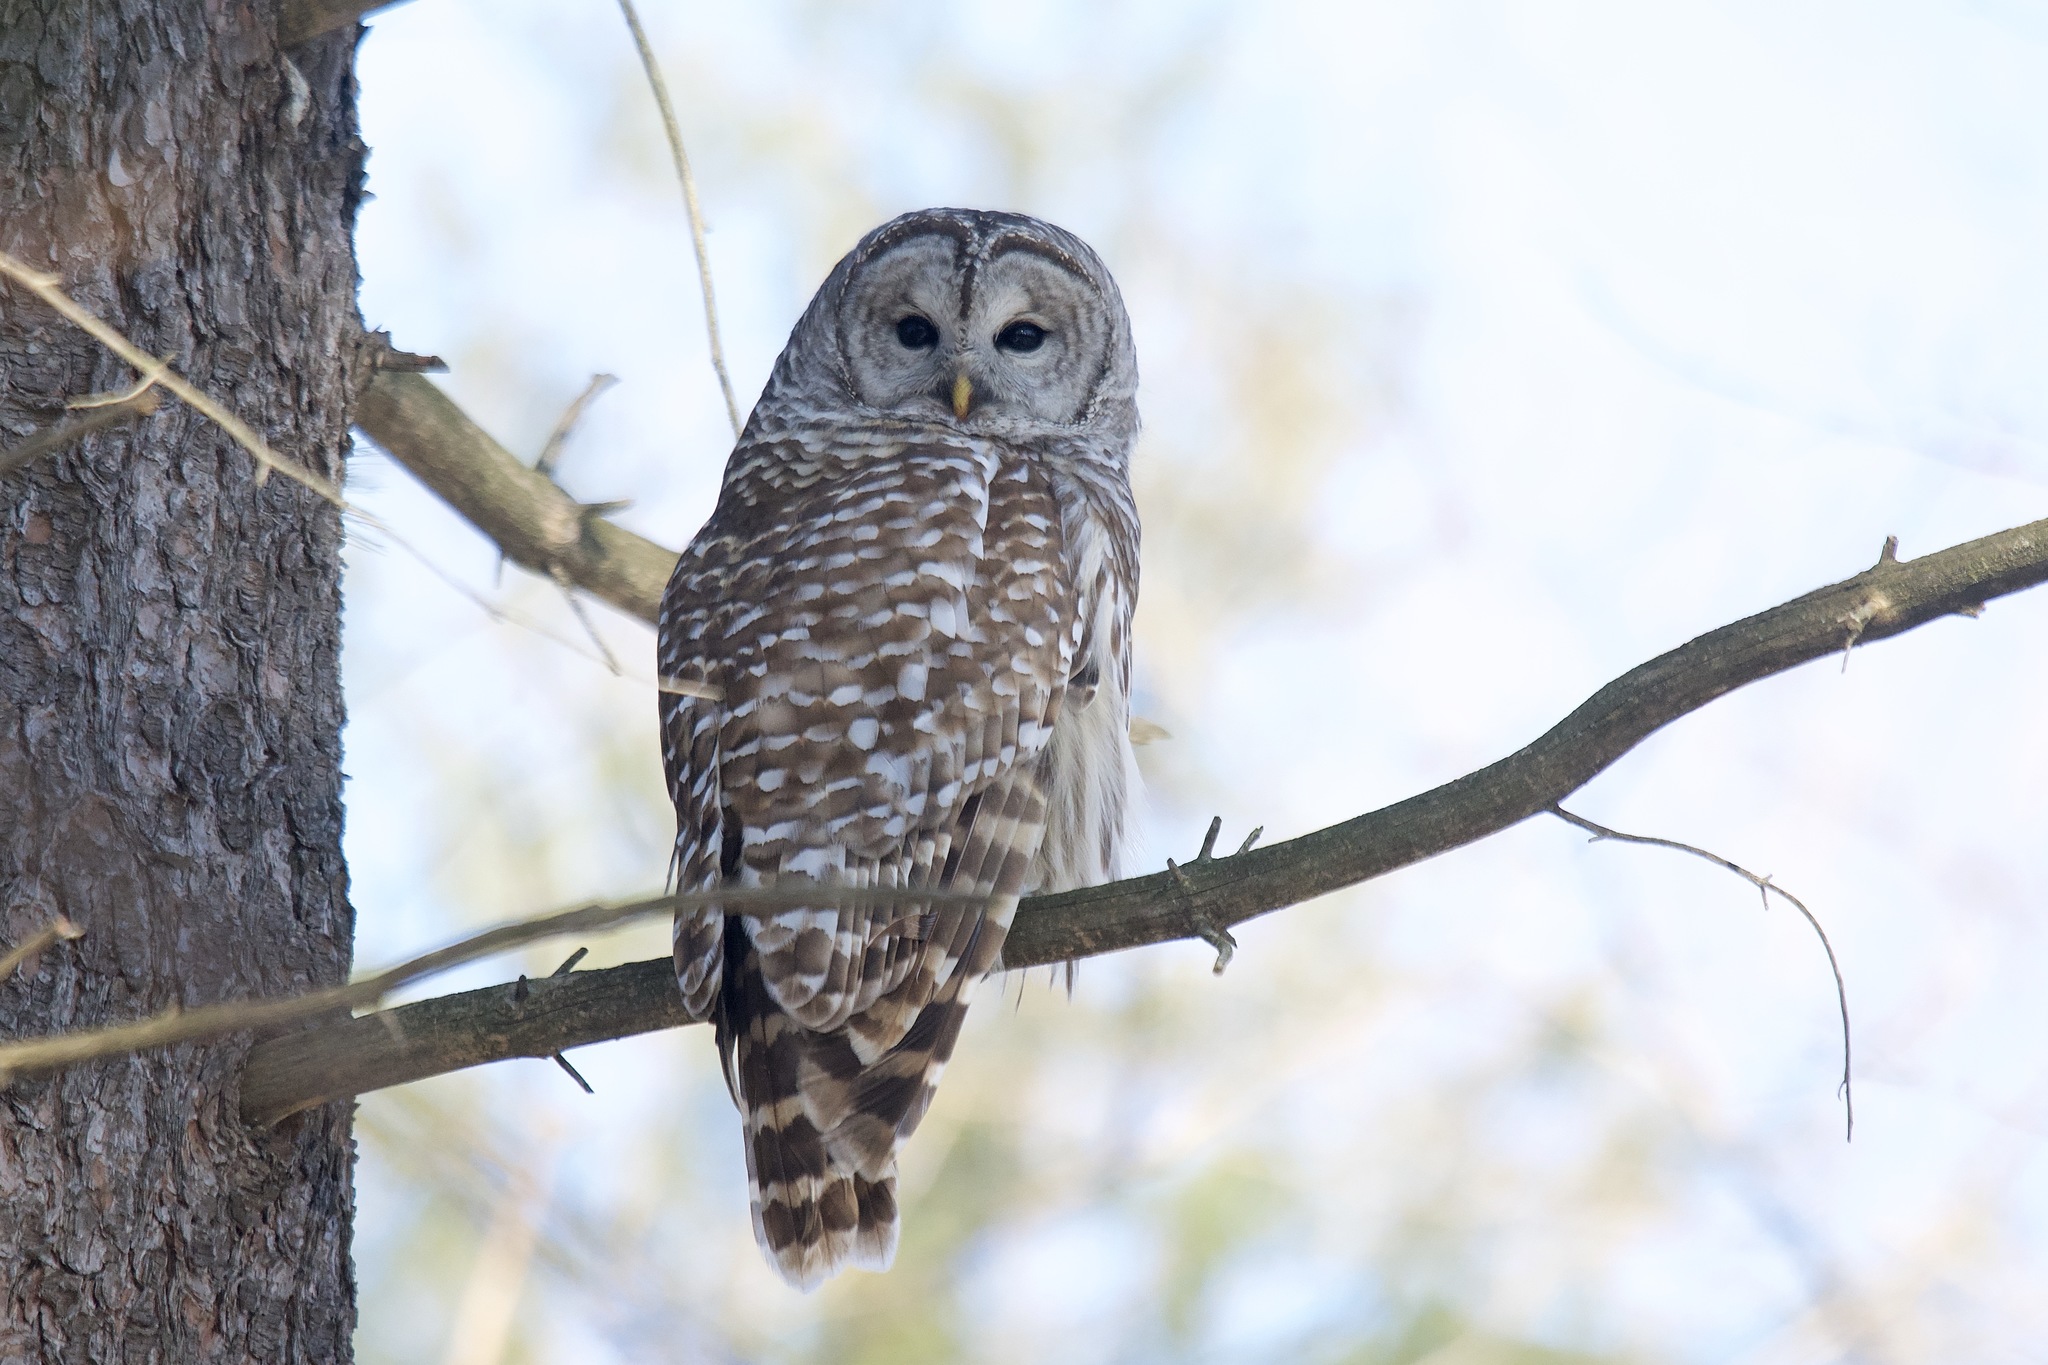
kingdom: Animalia
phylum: Chordata
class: Aves
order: Strigiformes
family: Strigidae
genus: Strix
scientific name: Strix varia
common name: Barred owl
